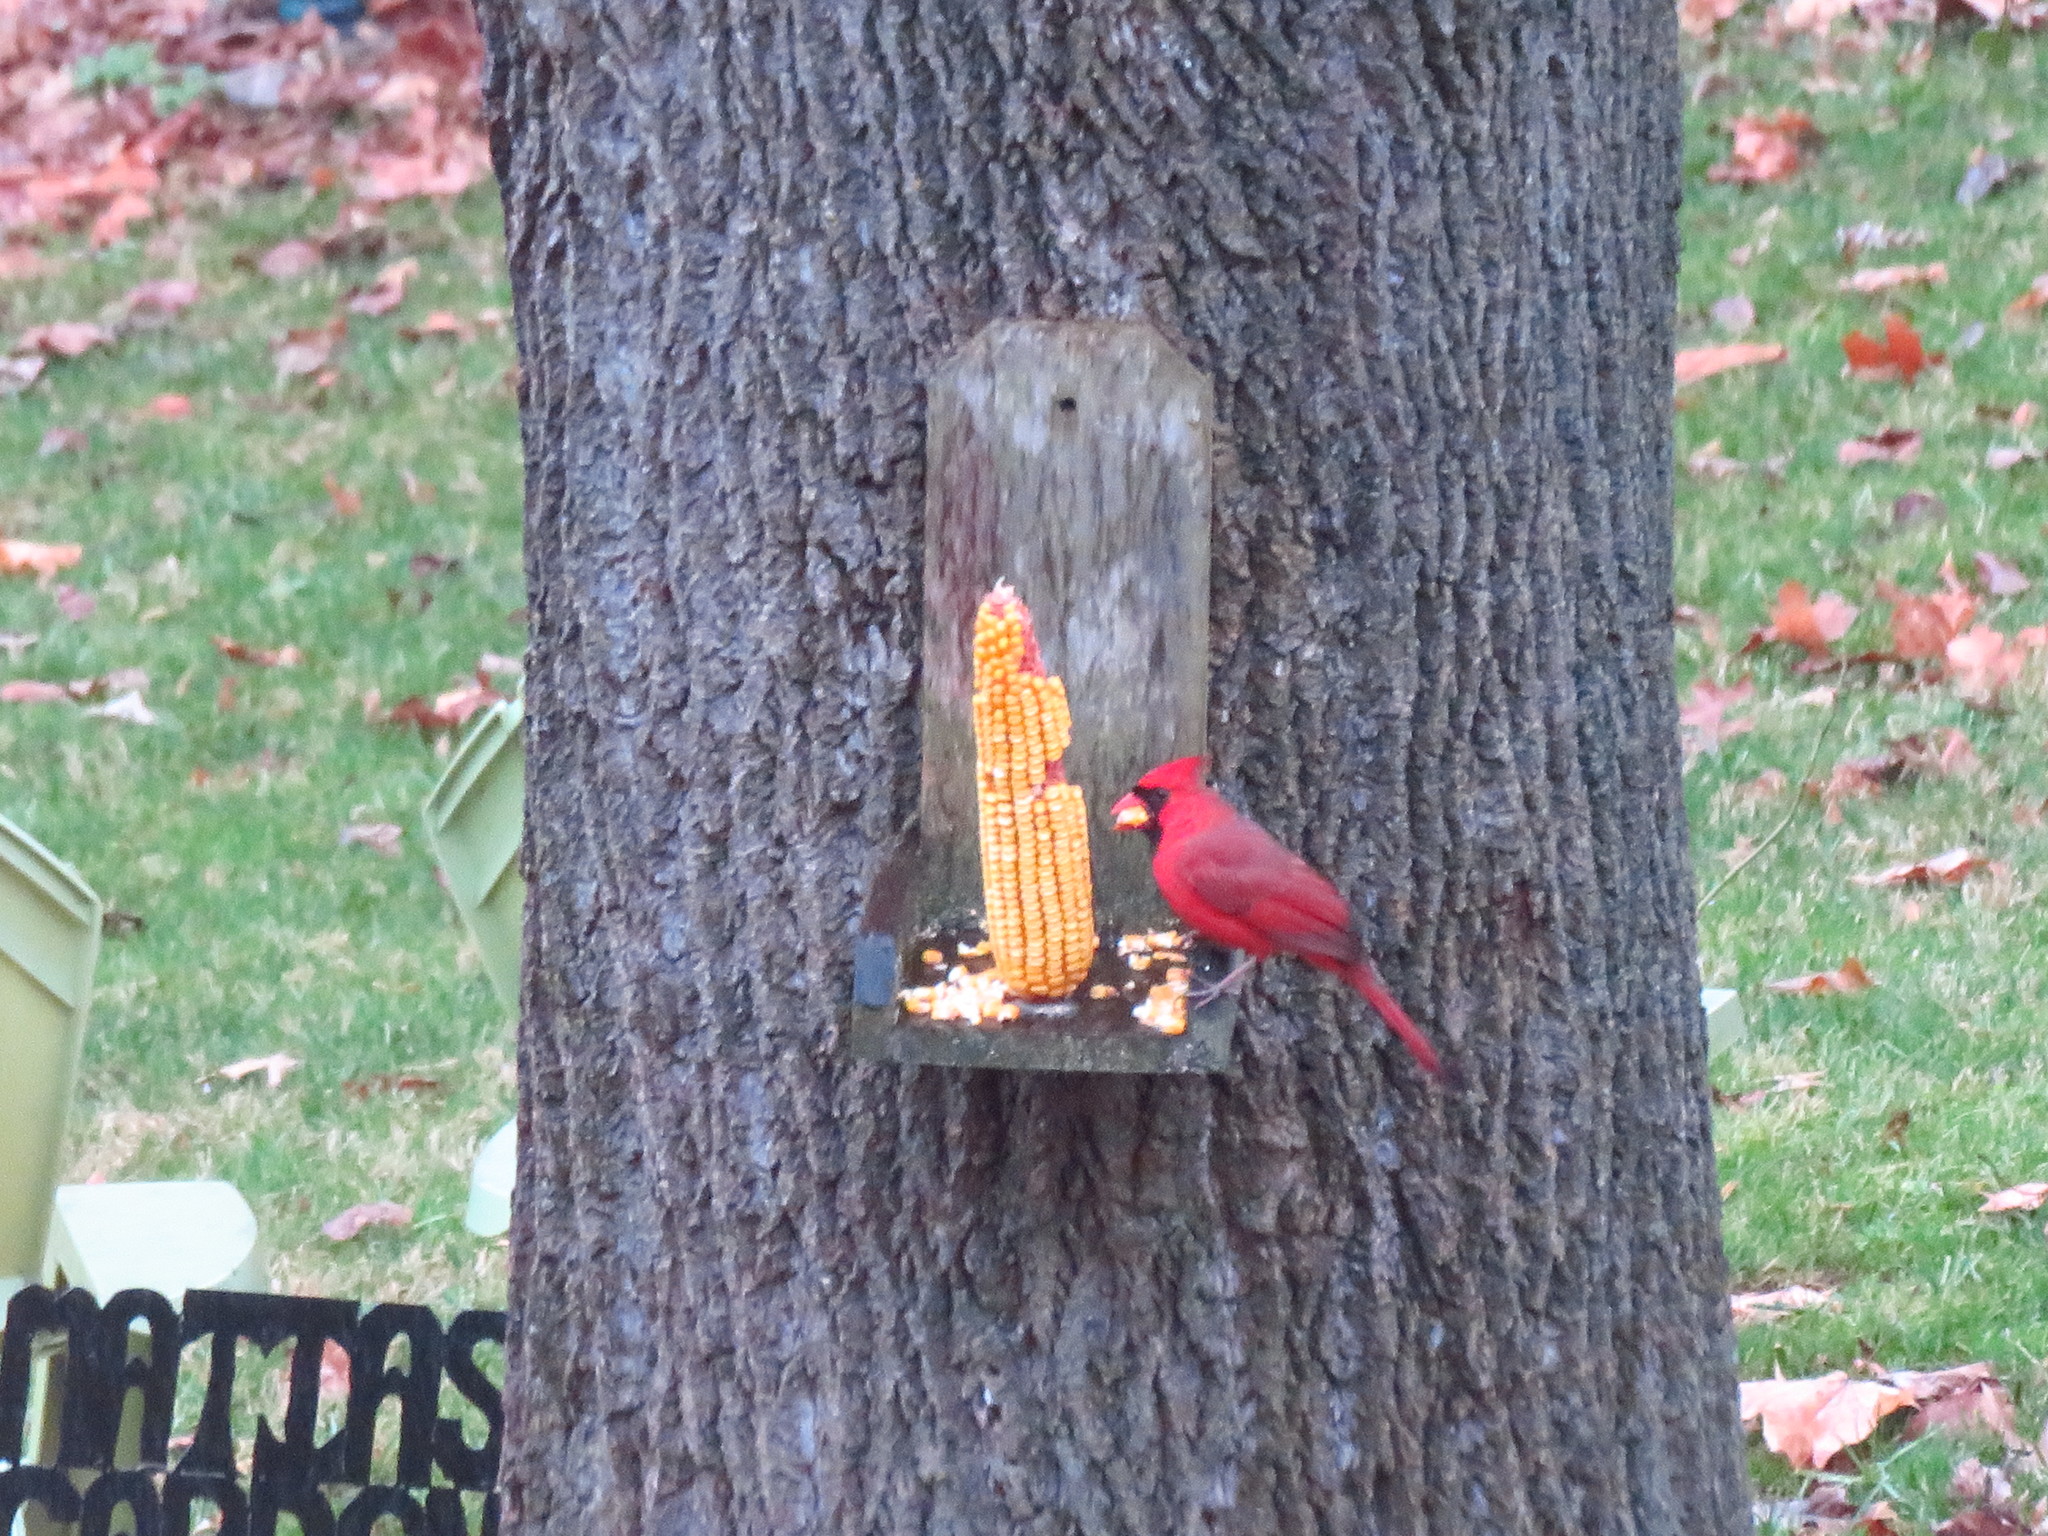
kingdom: Animalia
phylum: Chordata
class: Aves
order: Passeriformes
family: Cardinalidae
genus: Cardinalis
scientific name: Cardinalis cardinalis
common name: Northern cardinal
